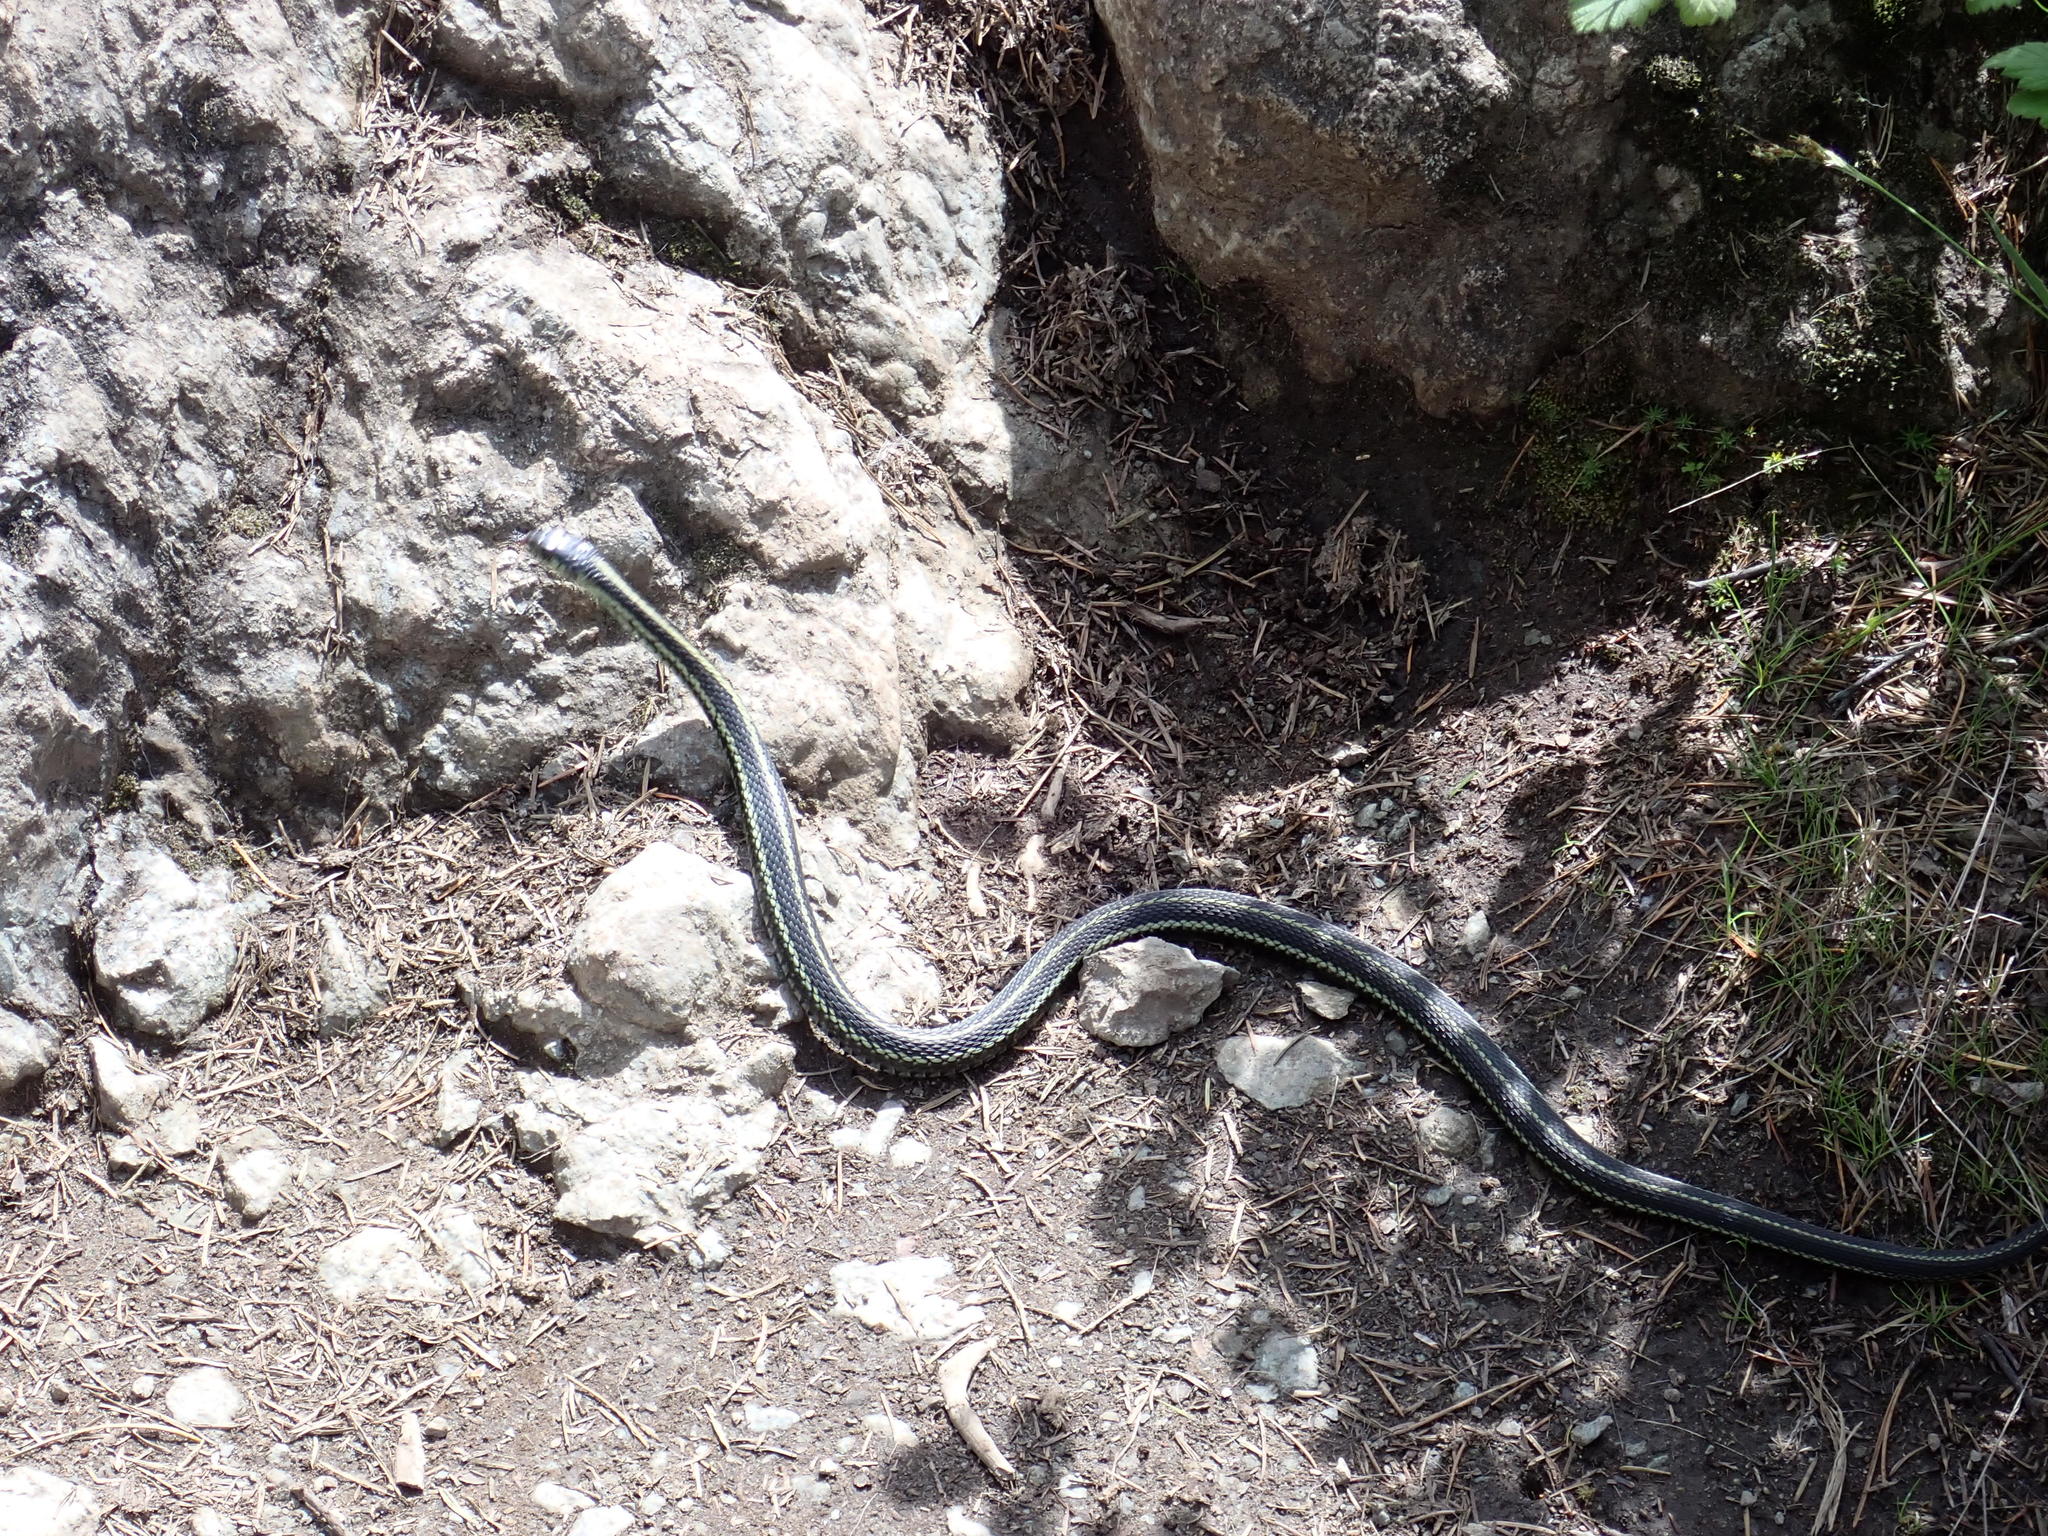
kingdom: Animalia
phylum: Chordata
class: Squamata
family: Colubridae
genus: Thamnophis
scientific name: Thamnophis sirtalis
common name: Common garter snake
